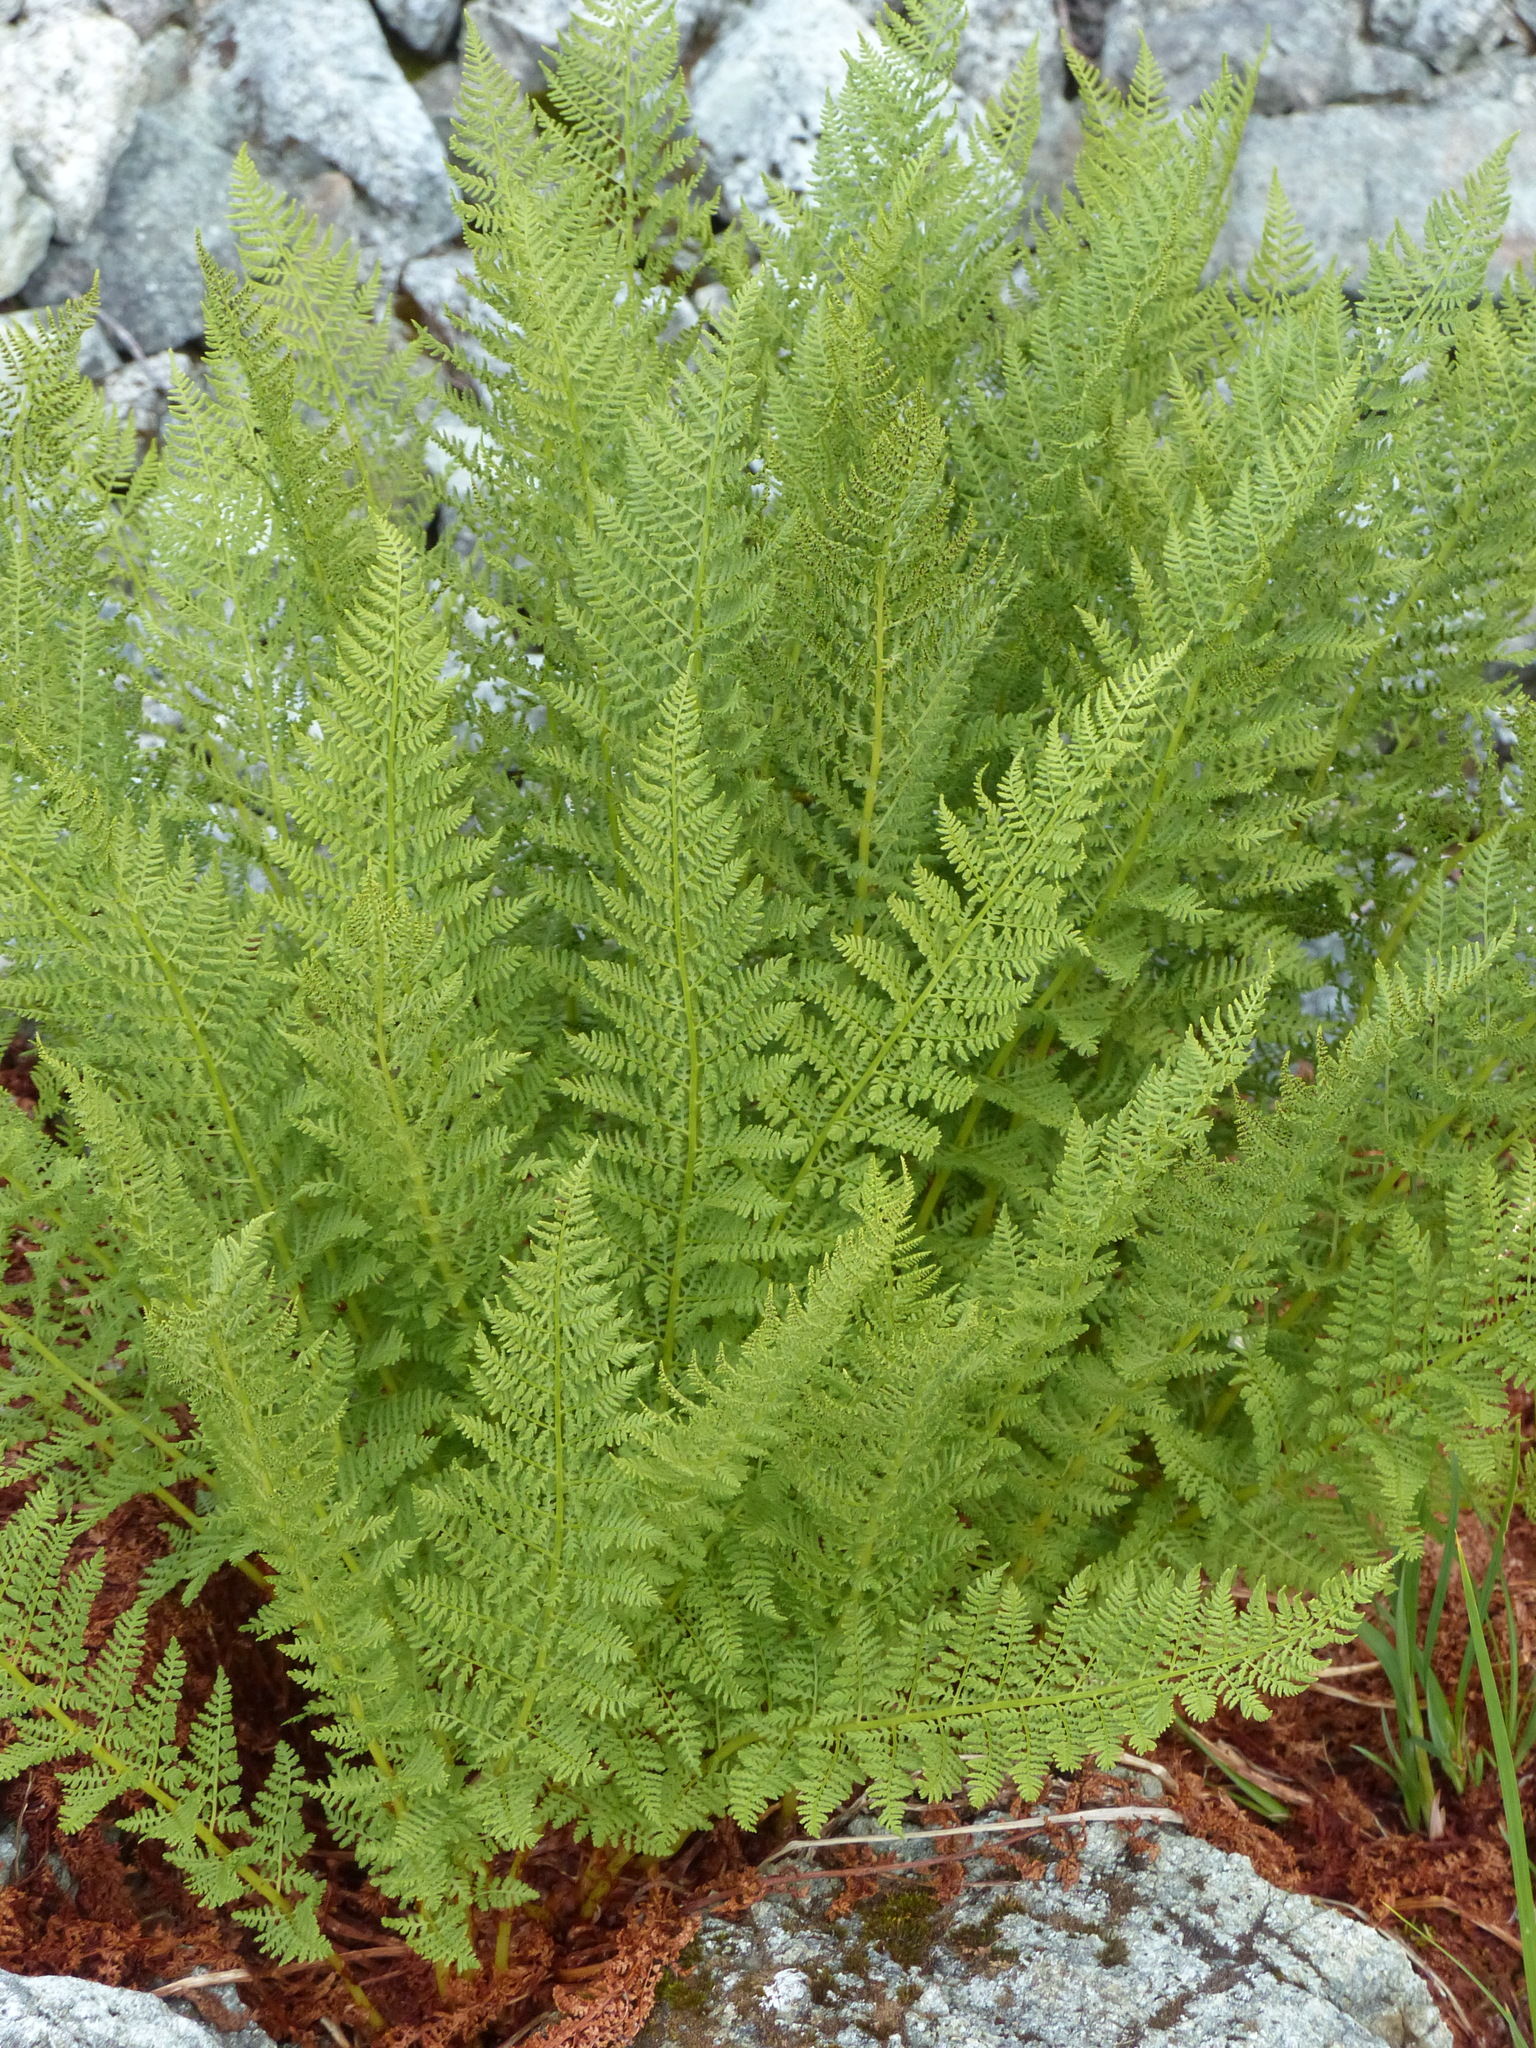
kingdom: Plantae
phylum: Tracheophyta
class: Polypodiopsida
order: Polypodiales
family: Athyriaceae
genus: Athyrium
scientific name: Athyrium americanum
